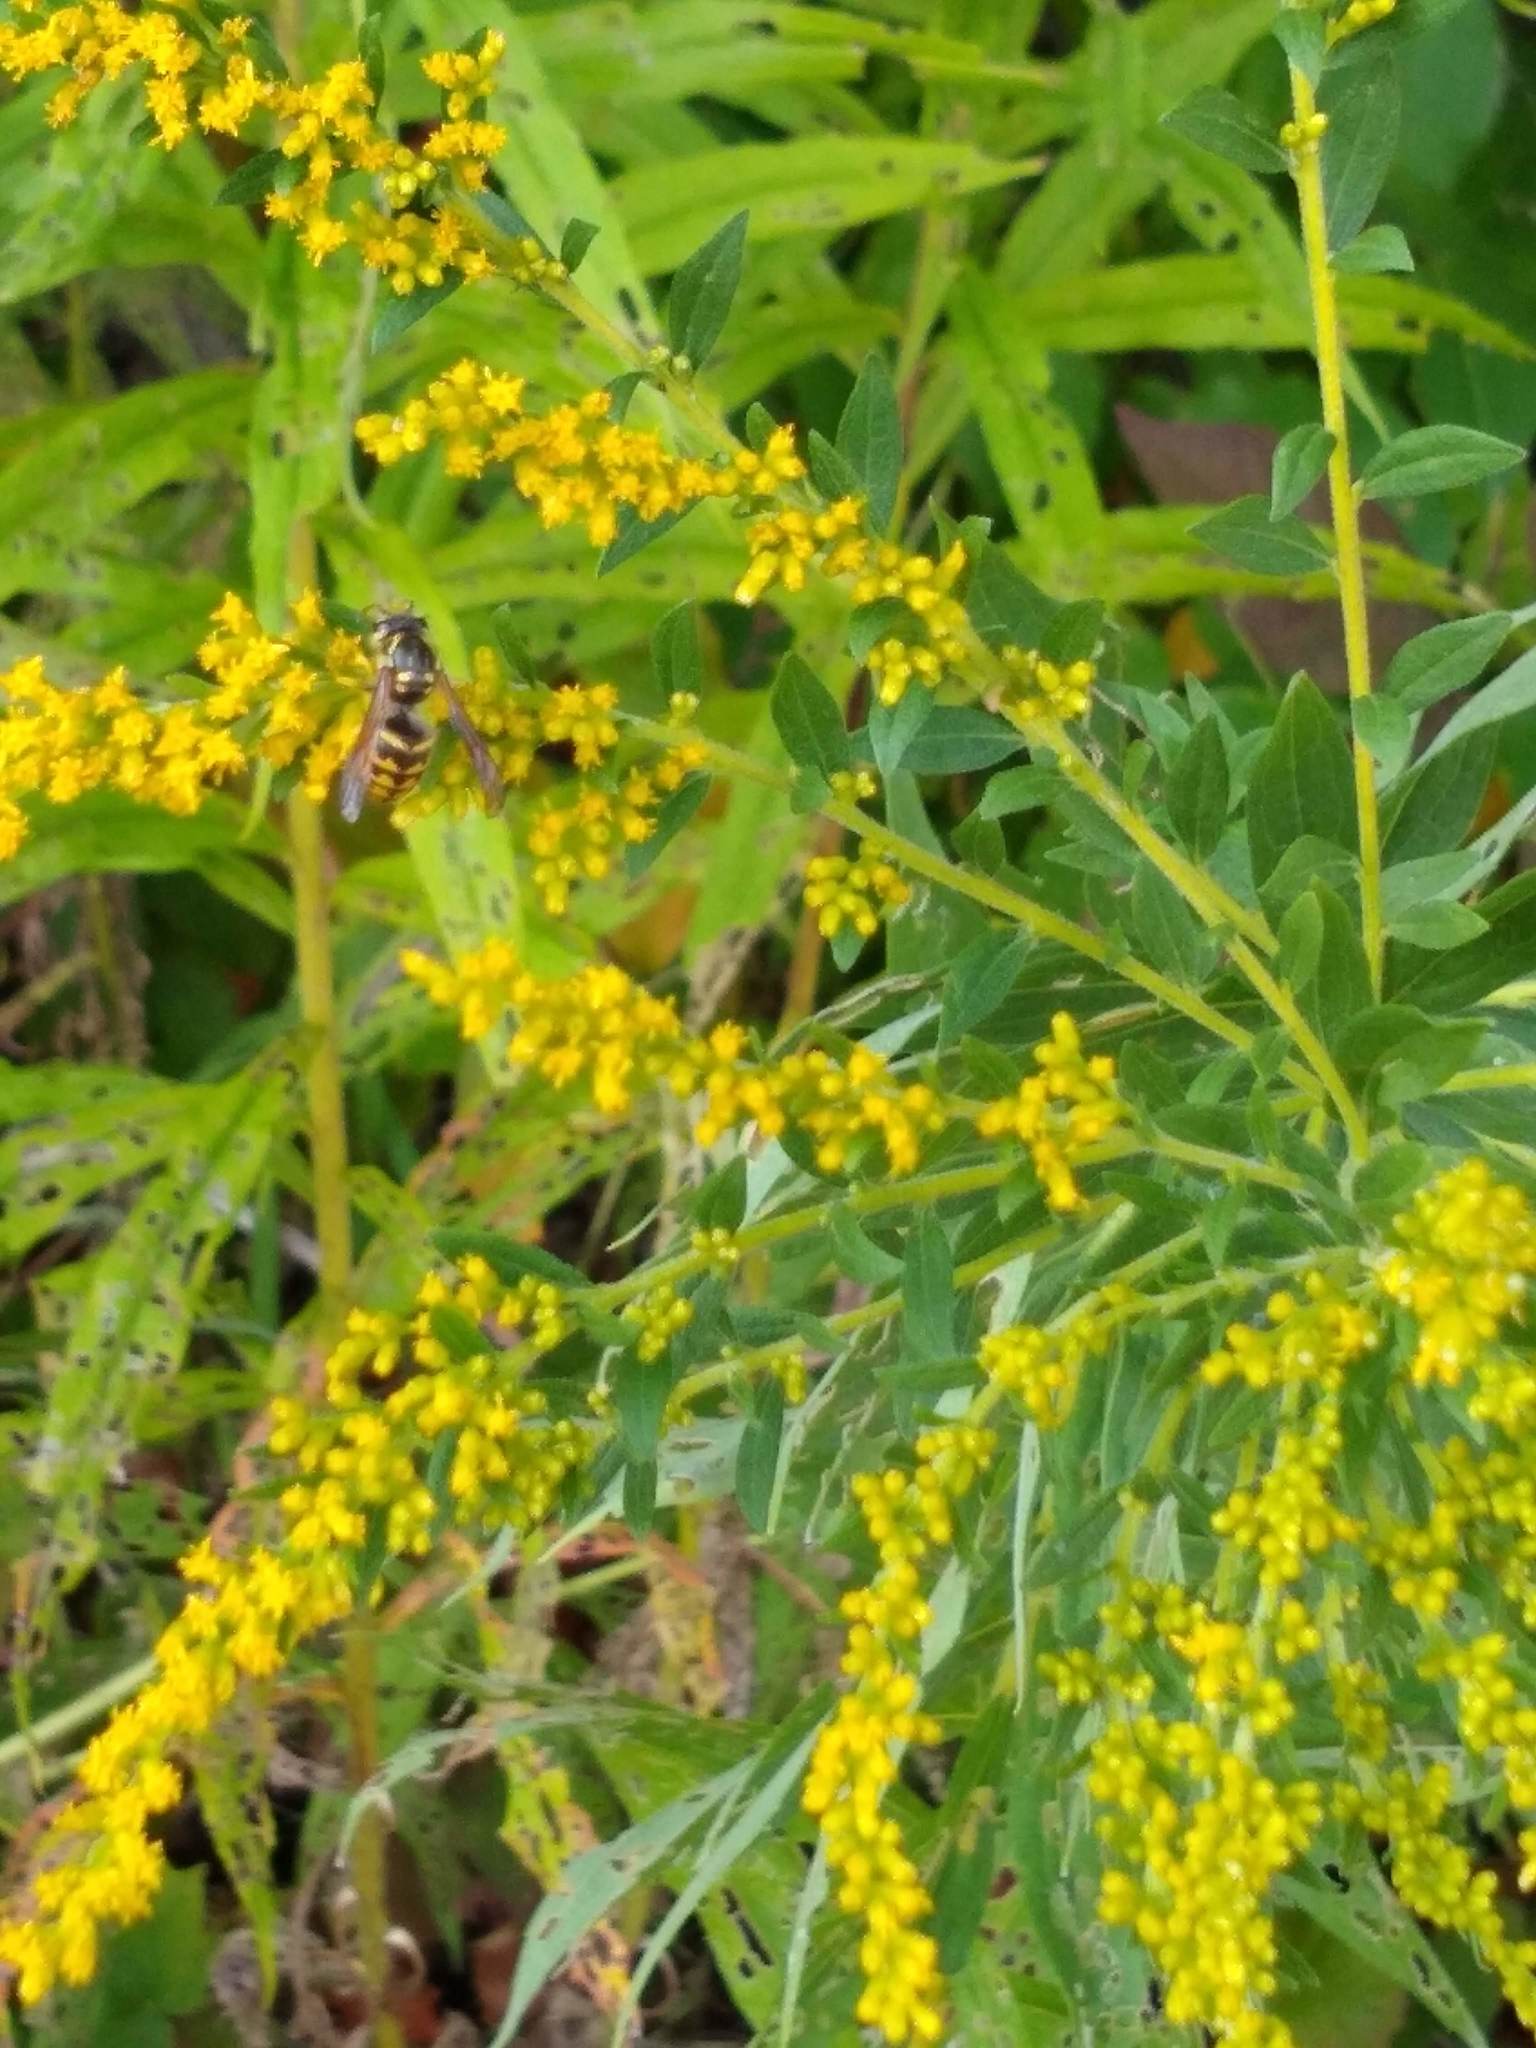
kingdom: Animalia
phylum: Arthropoda
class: Insecta
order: Hymenoptera
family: Vespidae
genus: Dolichovespula
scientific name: Dolichovespula arenaria
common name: Aerial yellowjacket
